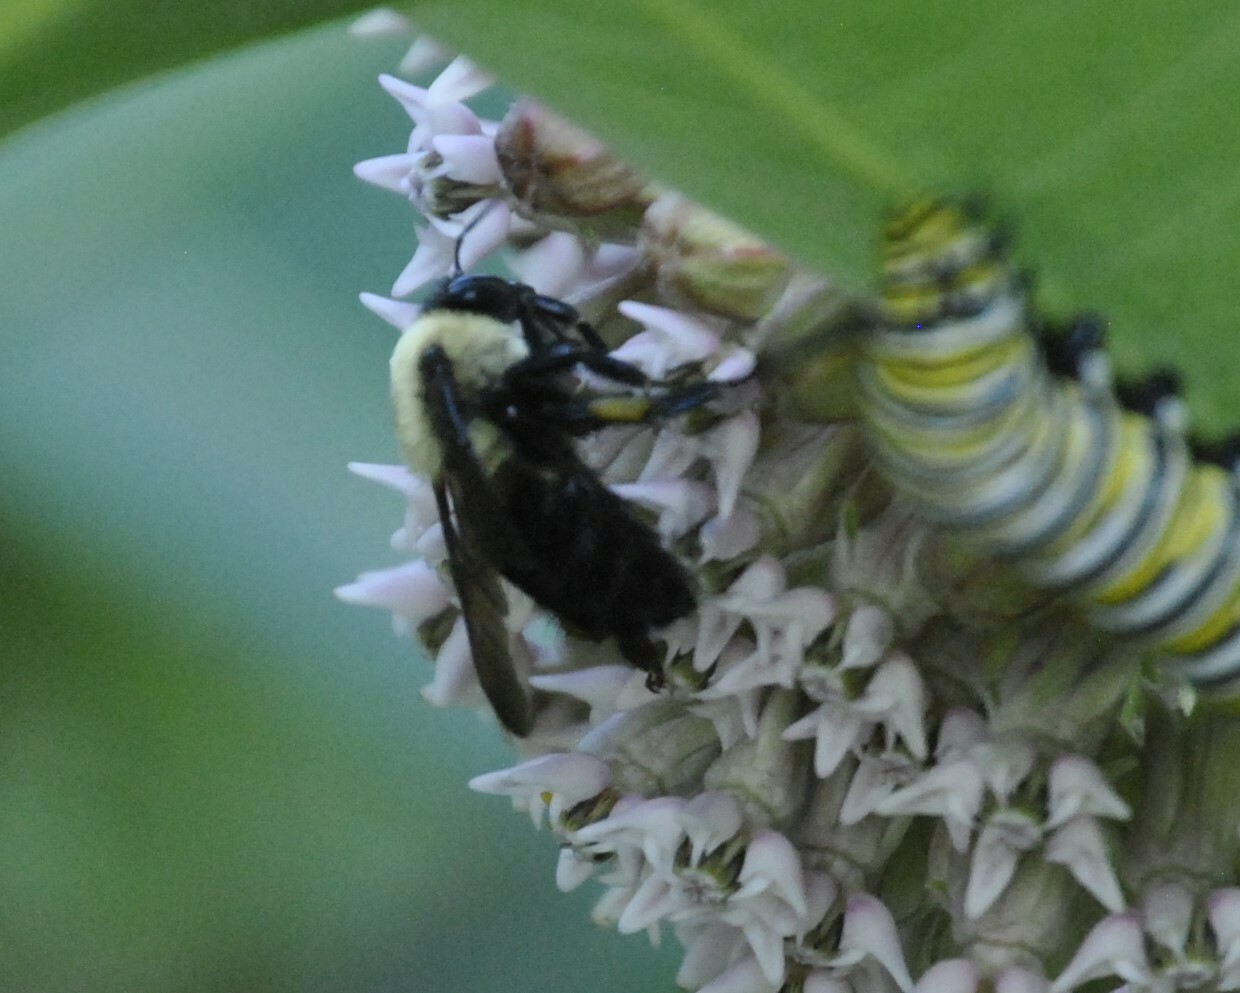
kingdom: Animalia
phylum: Arthropoda
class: Insecta
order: Hymenoptera
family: Apidae
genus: Bombus
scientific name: Bombus griseocollis
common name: Brown-belted bumble bee
